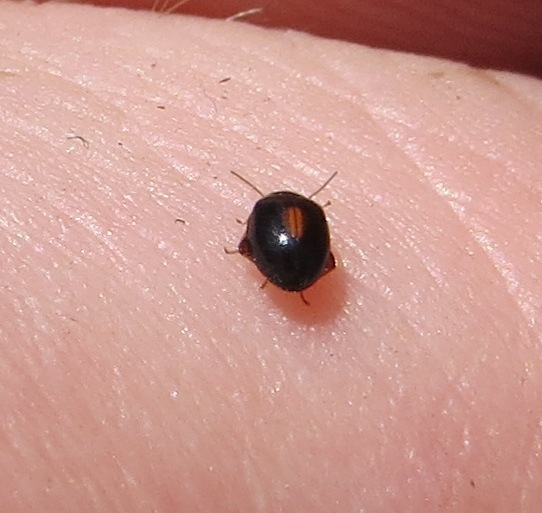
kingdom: Animalia
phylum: Arthropoda
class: Insecta
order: Coleoptera
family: Scirtidae
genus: Scirtes
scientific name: Scirtes orbiculatus
